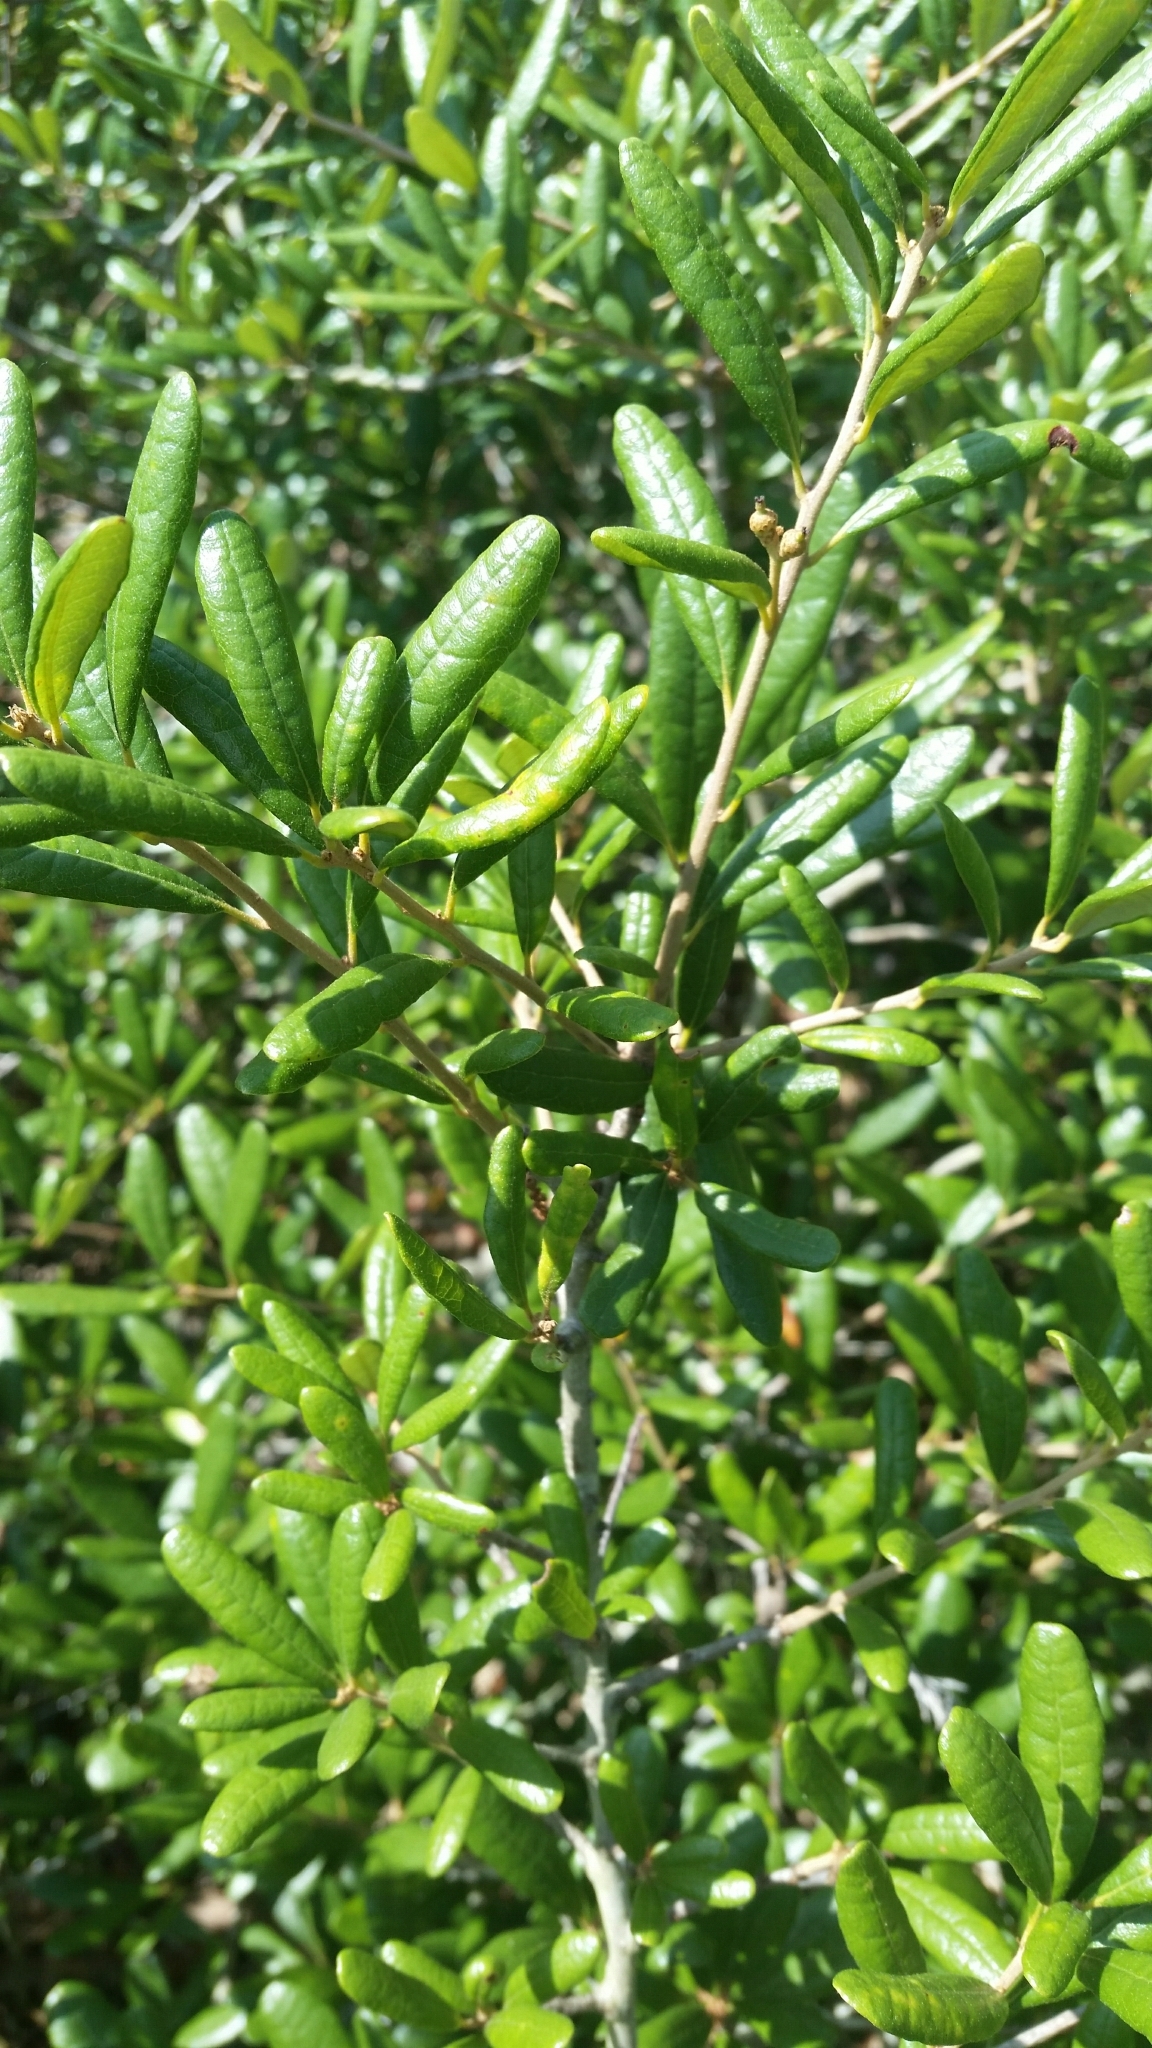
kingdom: Plantae
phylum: Tracheophyta
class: Magnoliopsida
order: Fagales
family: Fagaceae
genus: Quercus
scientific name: Quercus geminata
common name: Sand live oak
